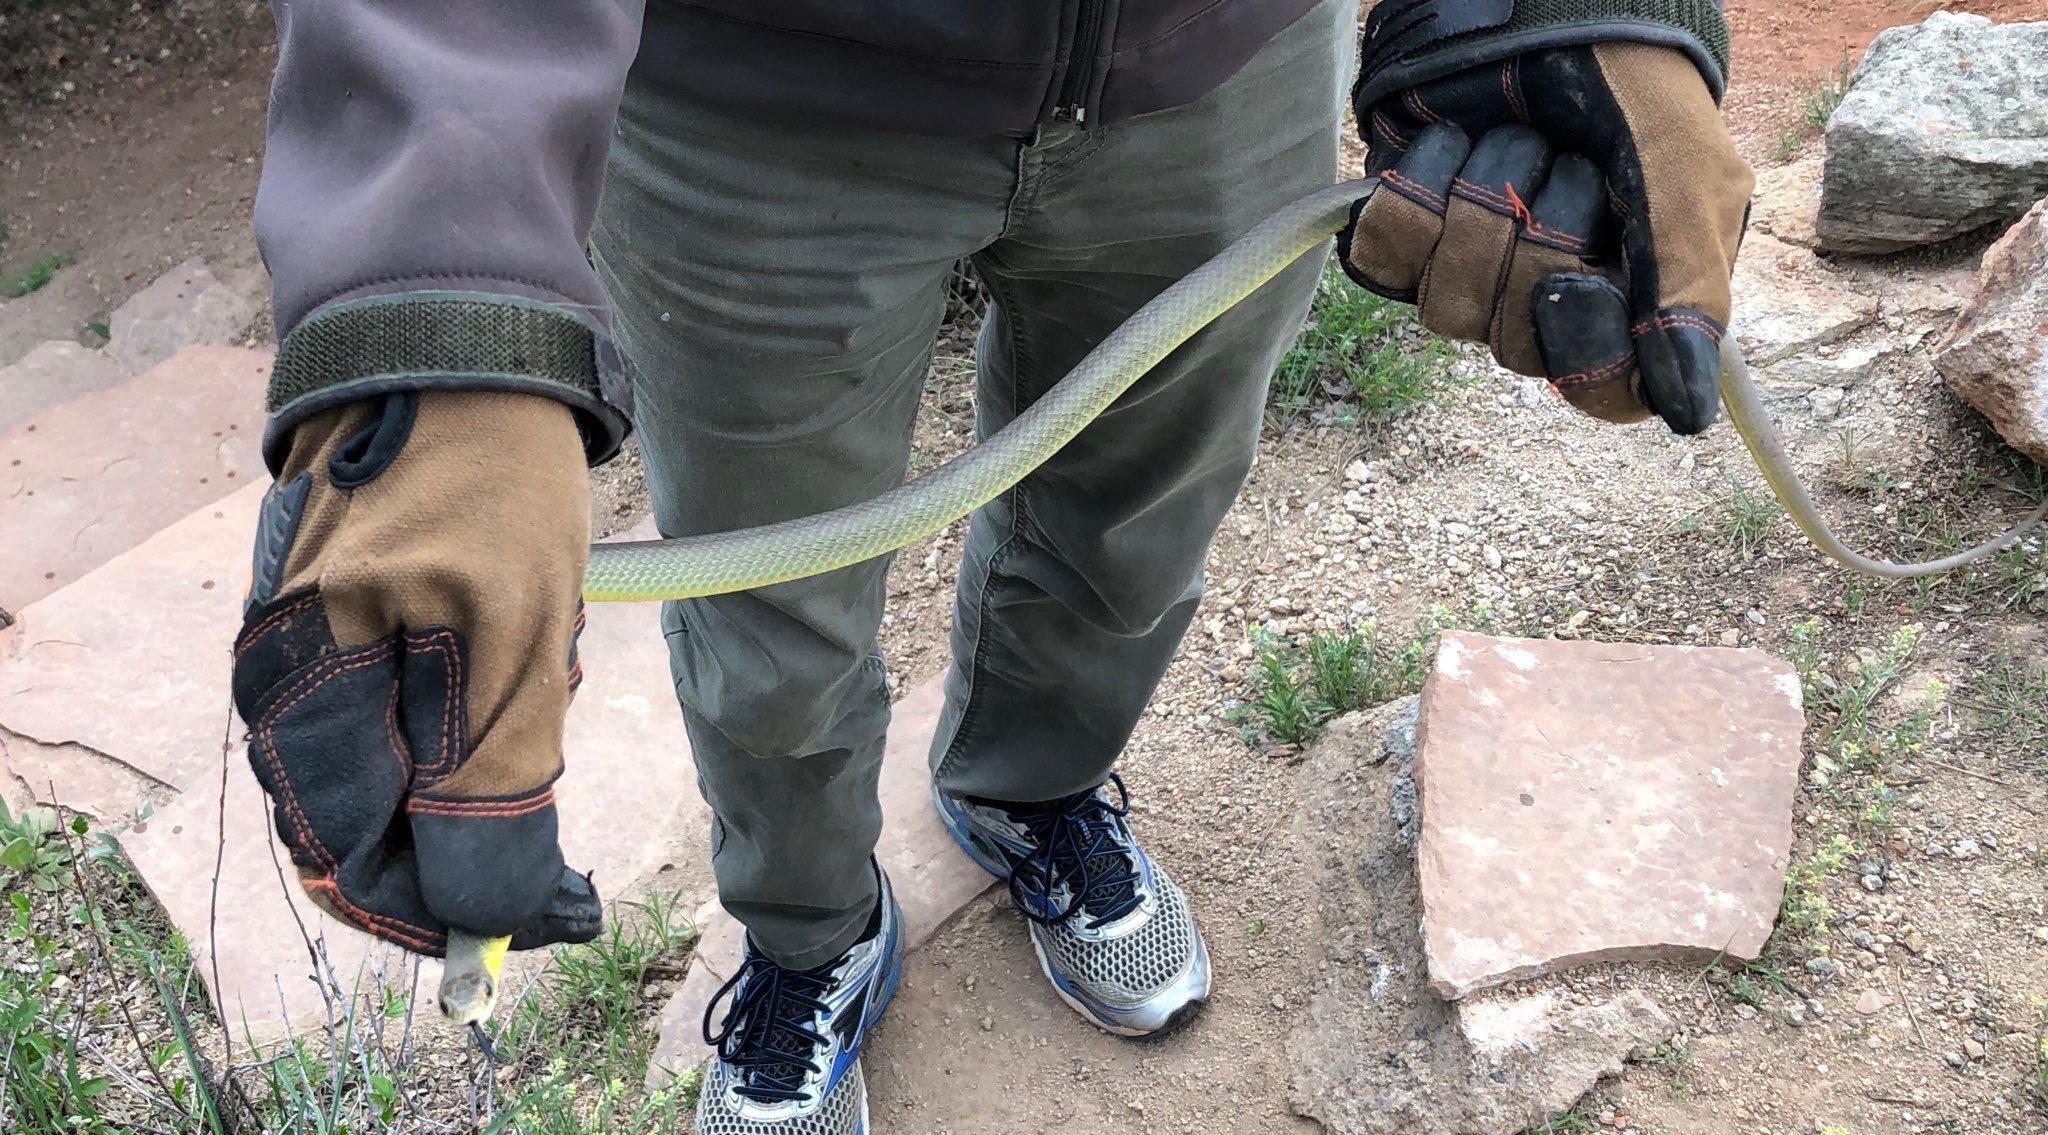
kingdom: Animalia
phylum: Chordata
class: Squamata
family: Colubridae
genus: Coluber
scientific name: Coluber constrictor
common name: Eastern racer
